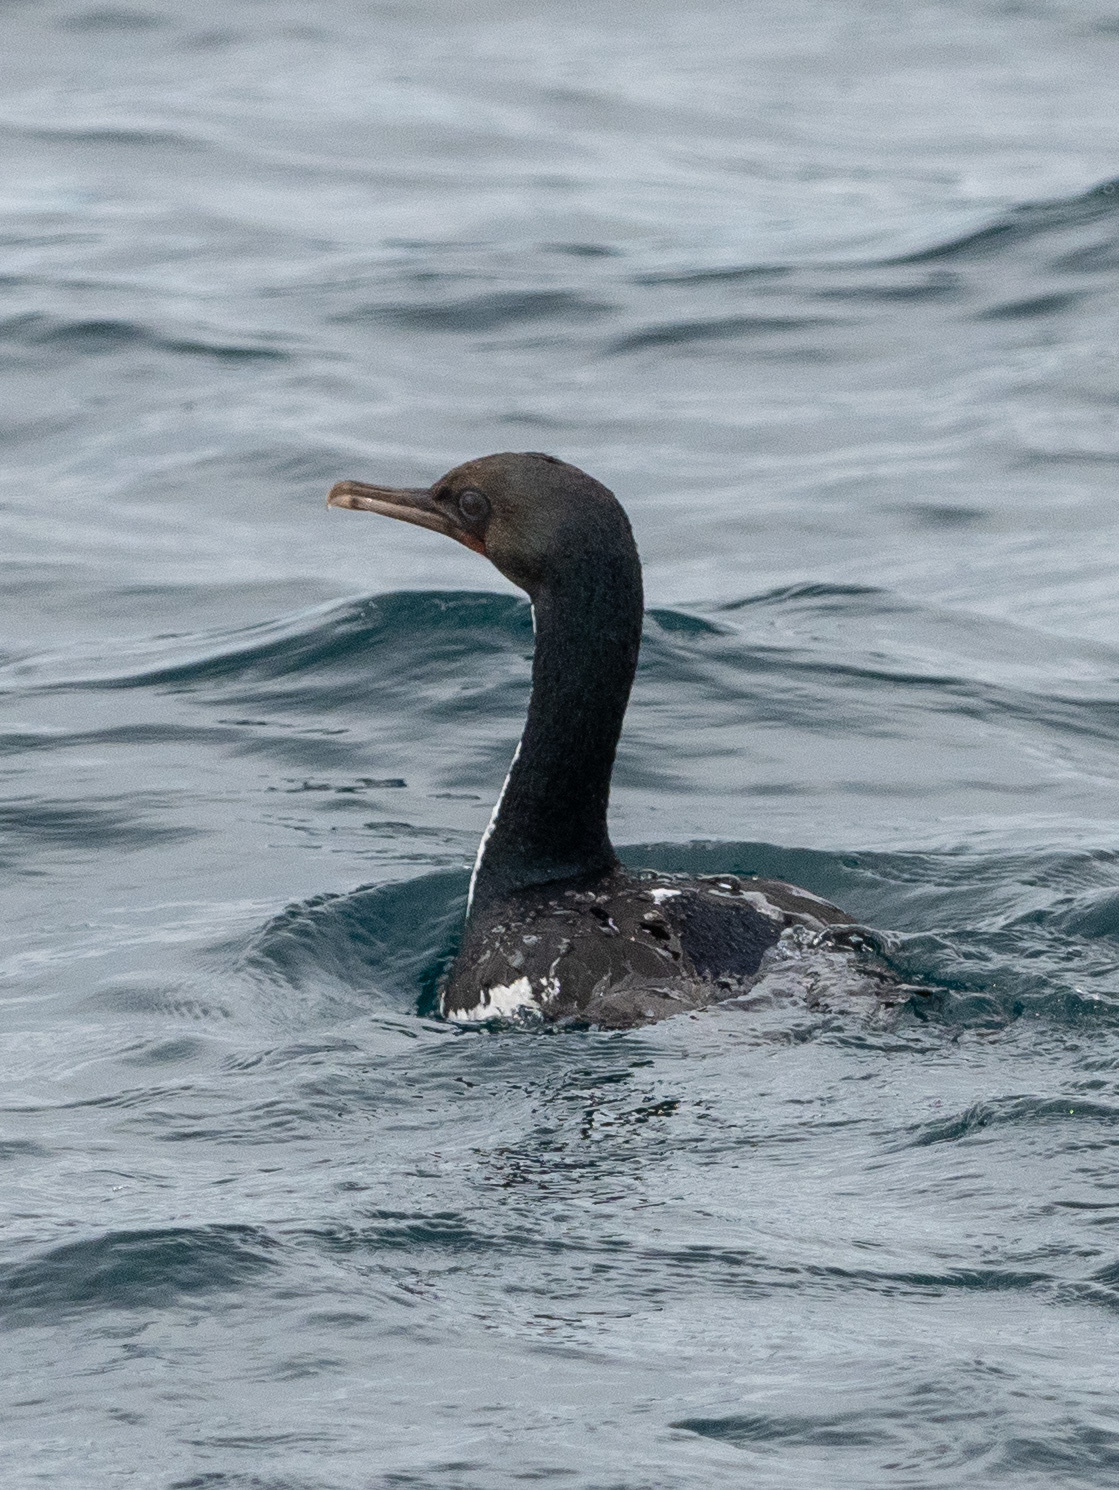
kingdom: Animalia
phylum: Chordata
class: Aves
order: Suliformes
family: Phalacrocoracidae
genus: Leucocarbo
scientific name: Leucocarbo chalconotus
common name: Stewart shag
